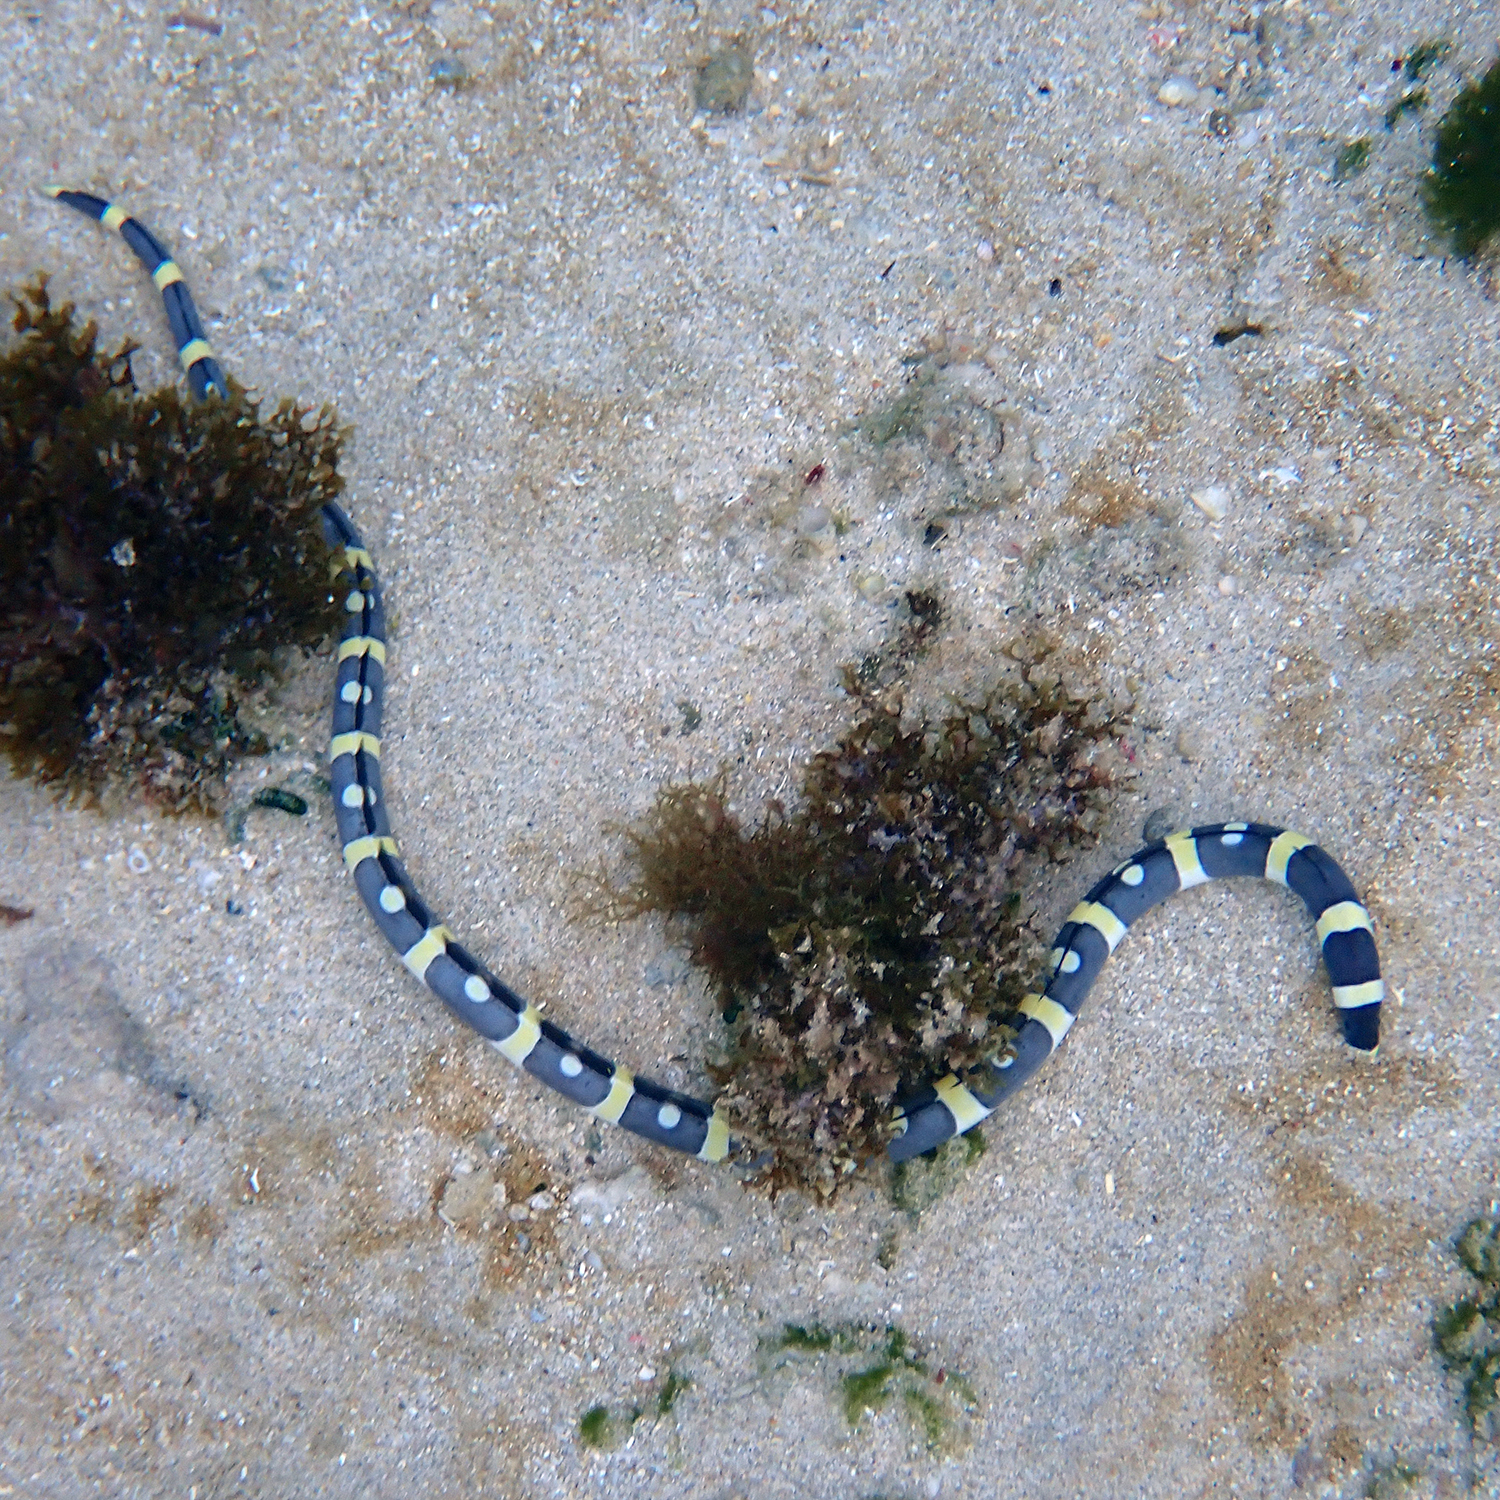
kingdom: Animalia
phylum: Chordata
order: Anguilliformes
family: Ophichthidae
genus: Leiuranus
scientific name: Leiuranus versicolor
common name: Convict snake eel
